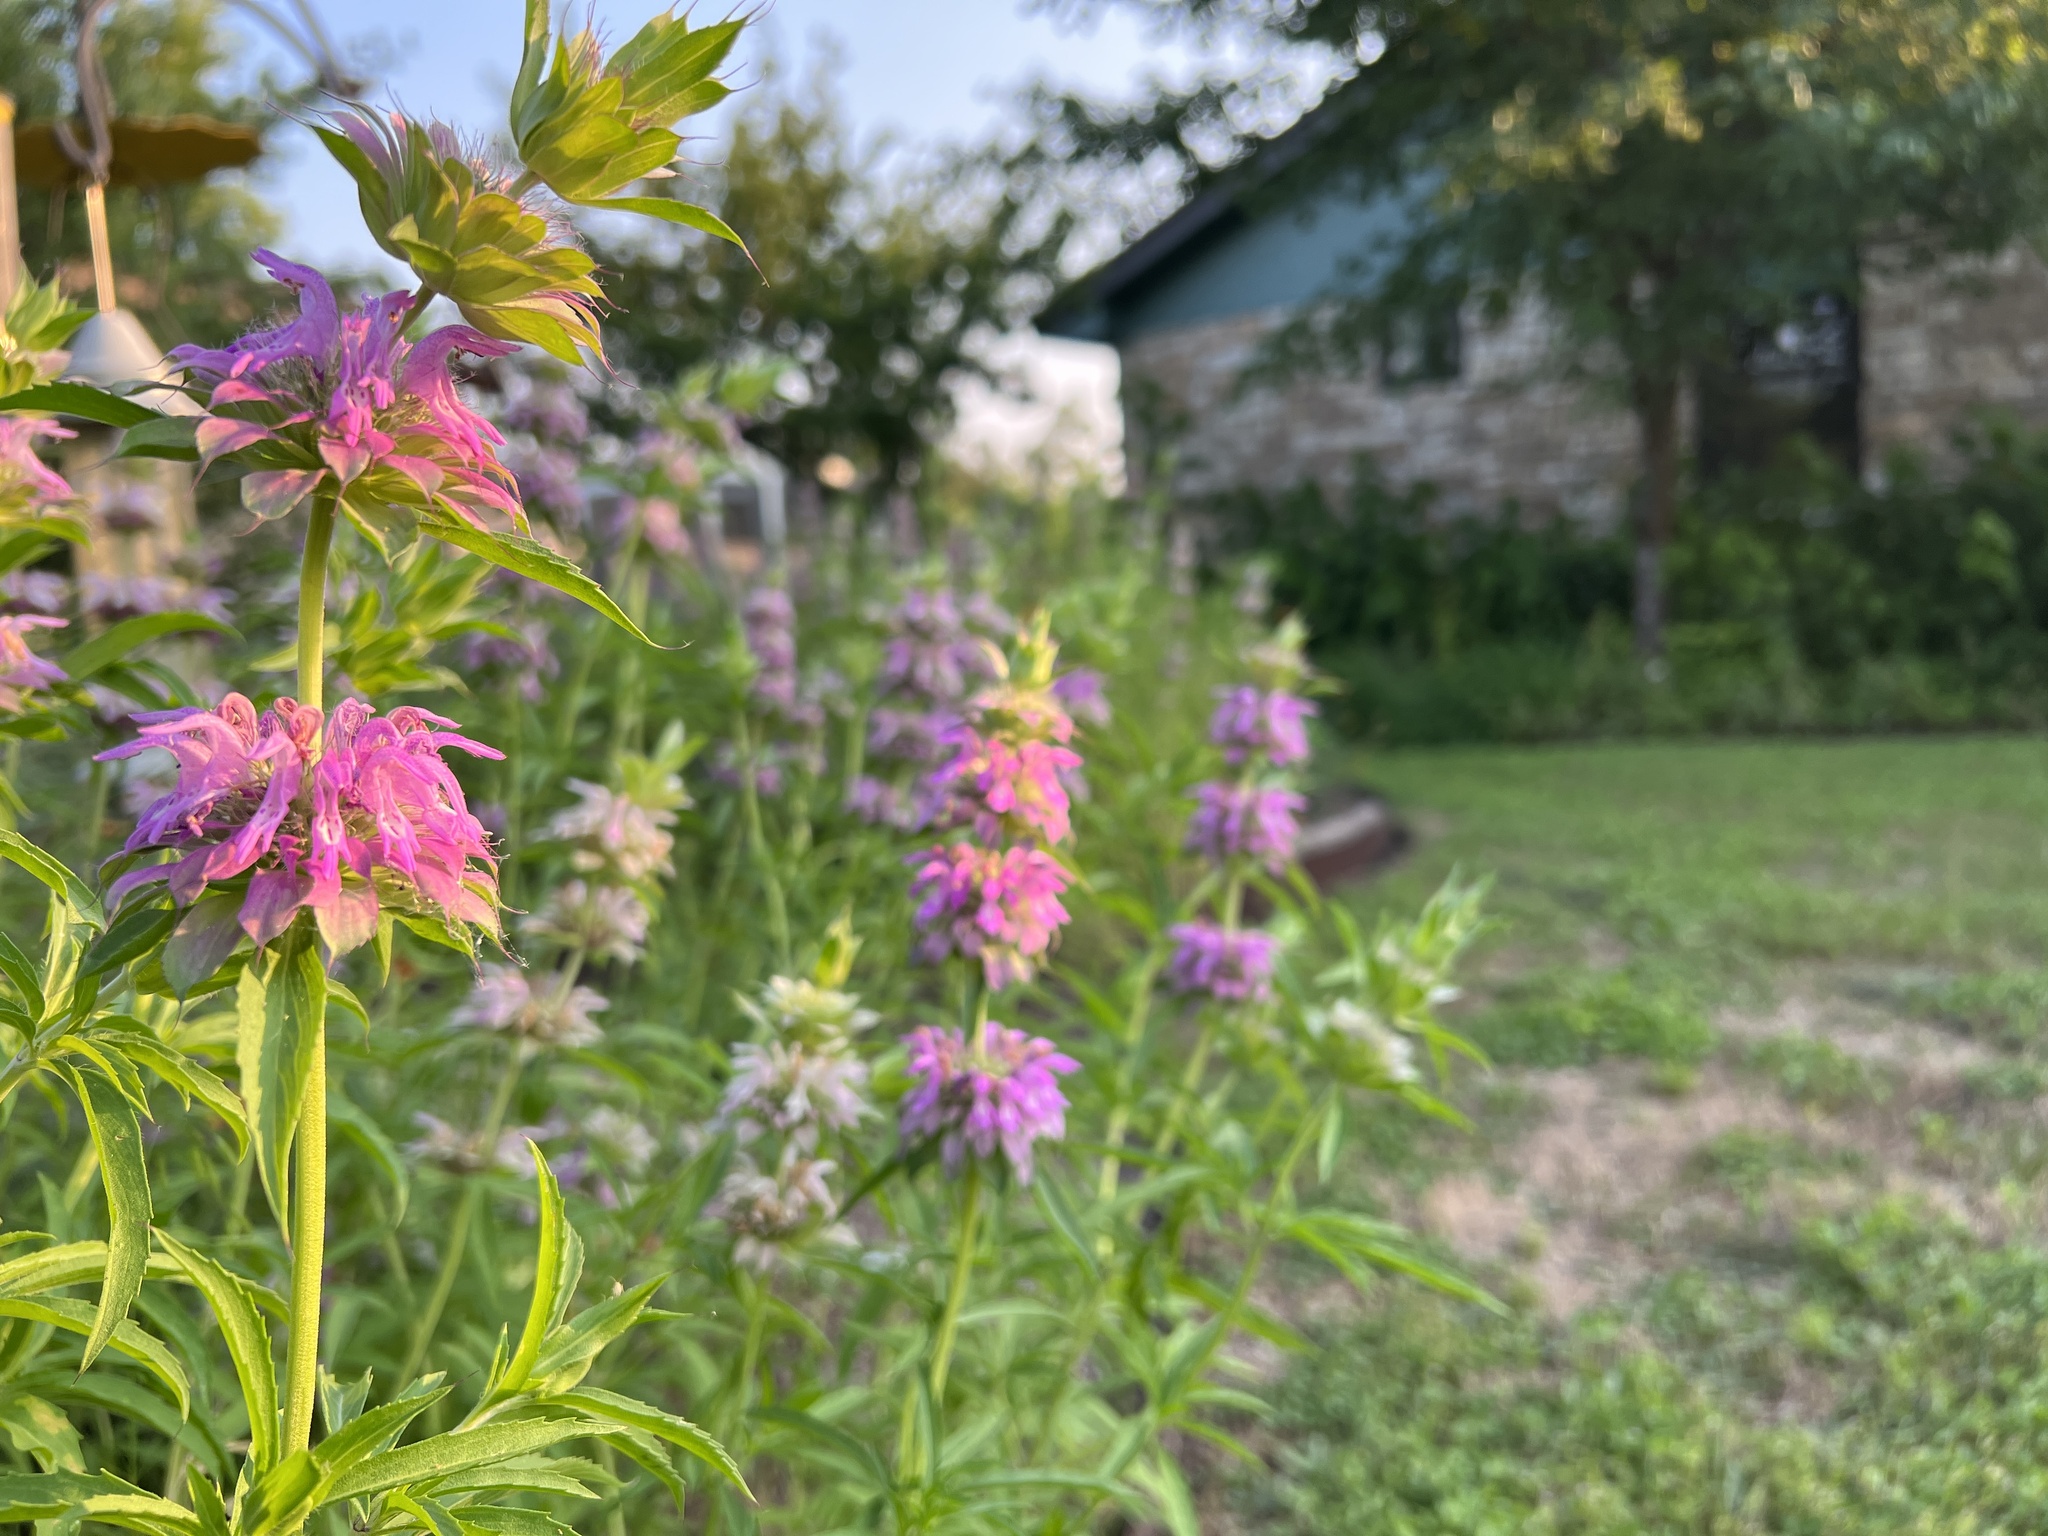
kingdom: Plantae
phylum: Tracheophyta
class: Magnoliopsida
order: Lamiales
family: Lamiaceae
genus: Monarda
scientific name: Monarda citriodora
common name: Lemon beebalm
